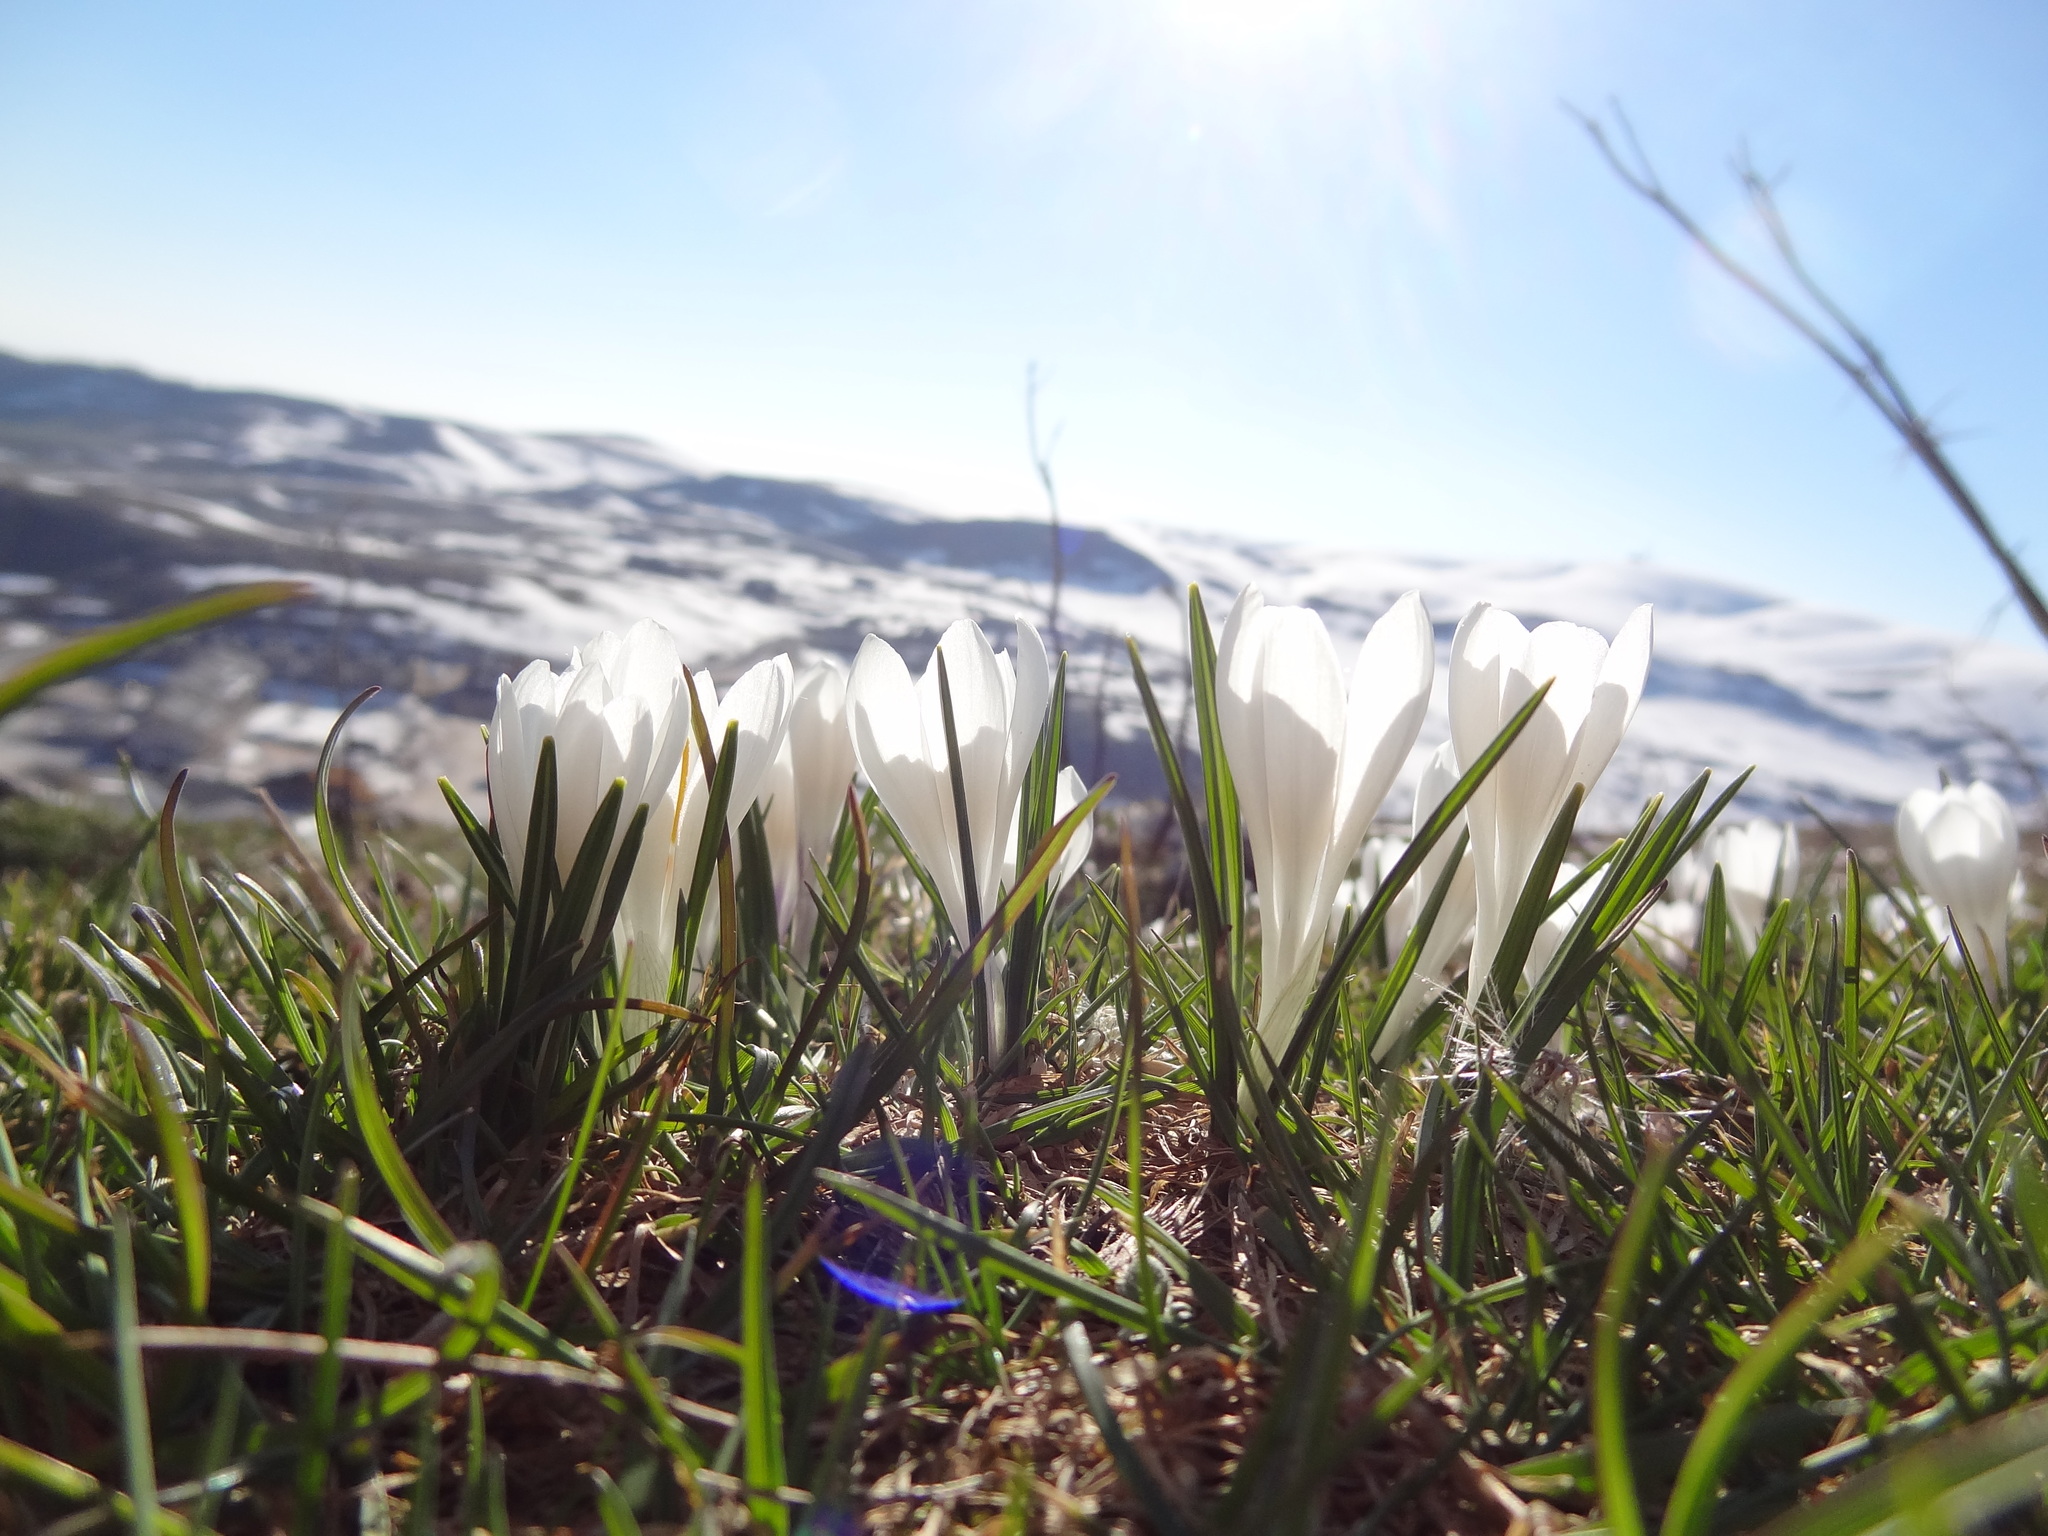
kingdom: Plantae
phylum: Tracheophyta
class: Liliopsida
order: Asparagales
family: Iridaceae
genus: Crocus
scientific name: Crocus vernus
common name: Spring crocus
